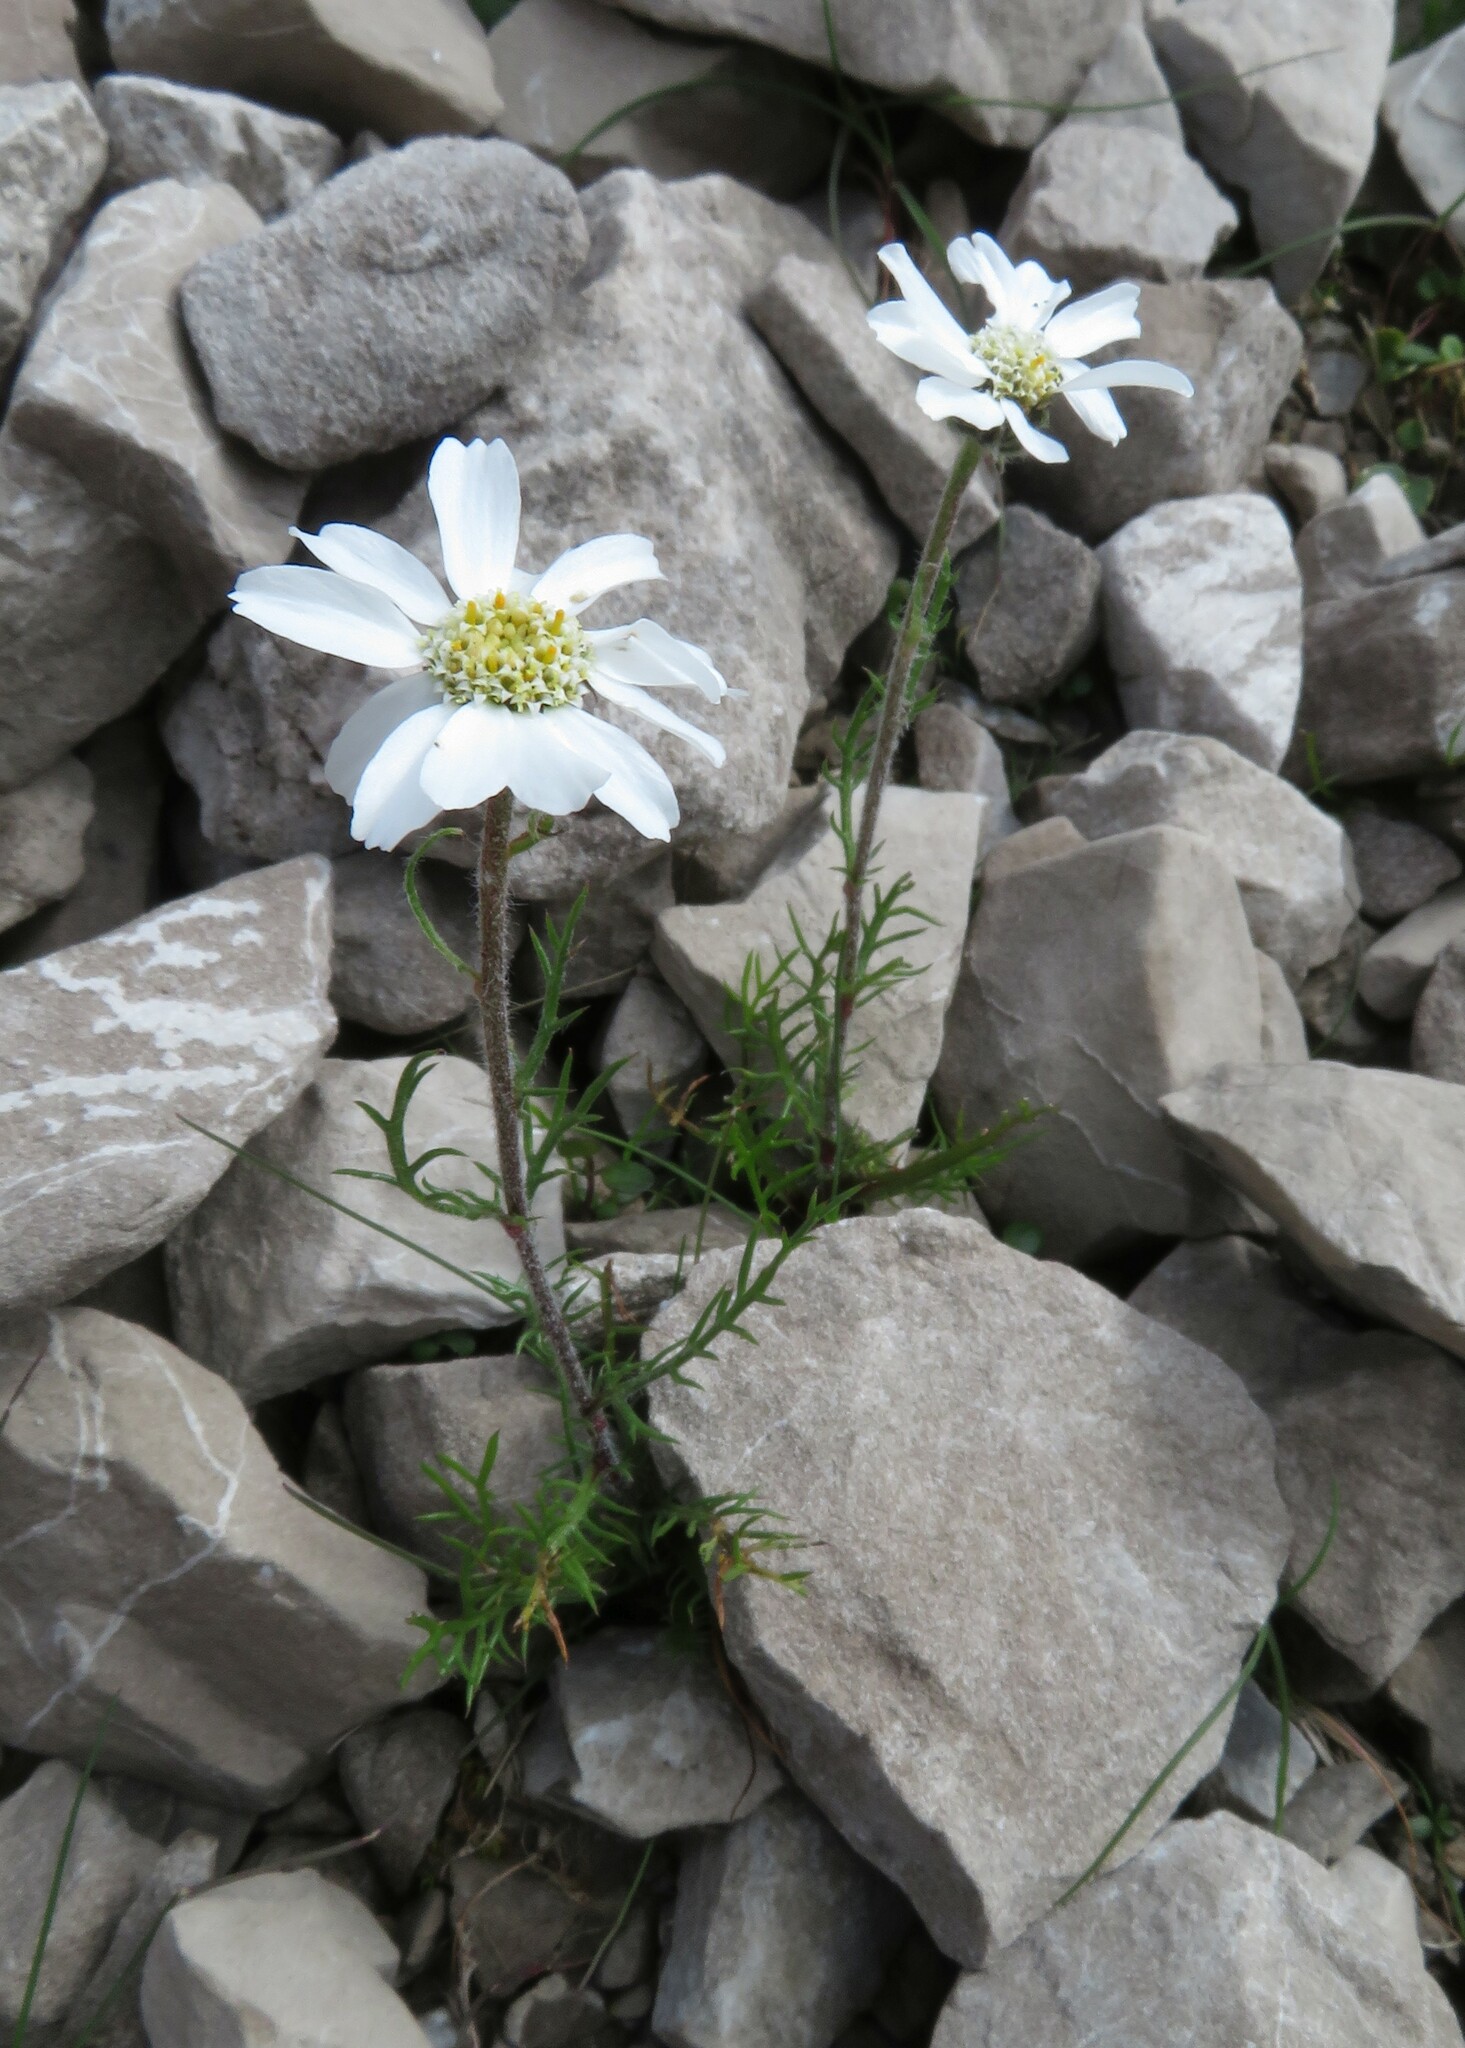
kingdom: Plantae
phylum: Tracheophyta
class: Magnoliopsida
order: Asterales
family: Asteraceae
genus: Achillea
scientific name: Achillea oxyloba
